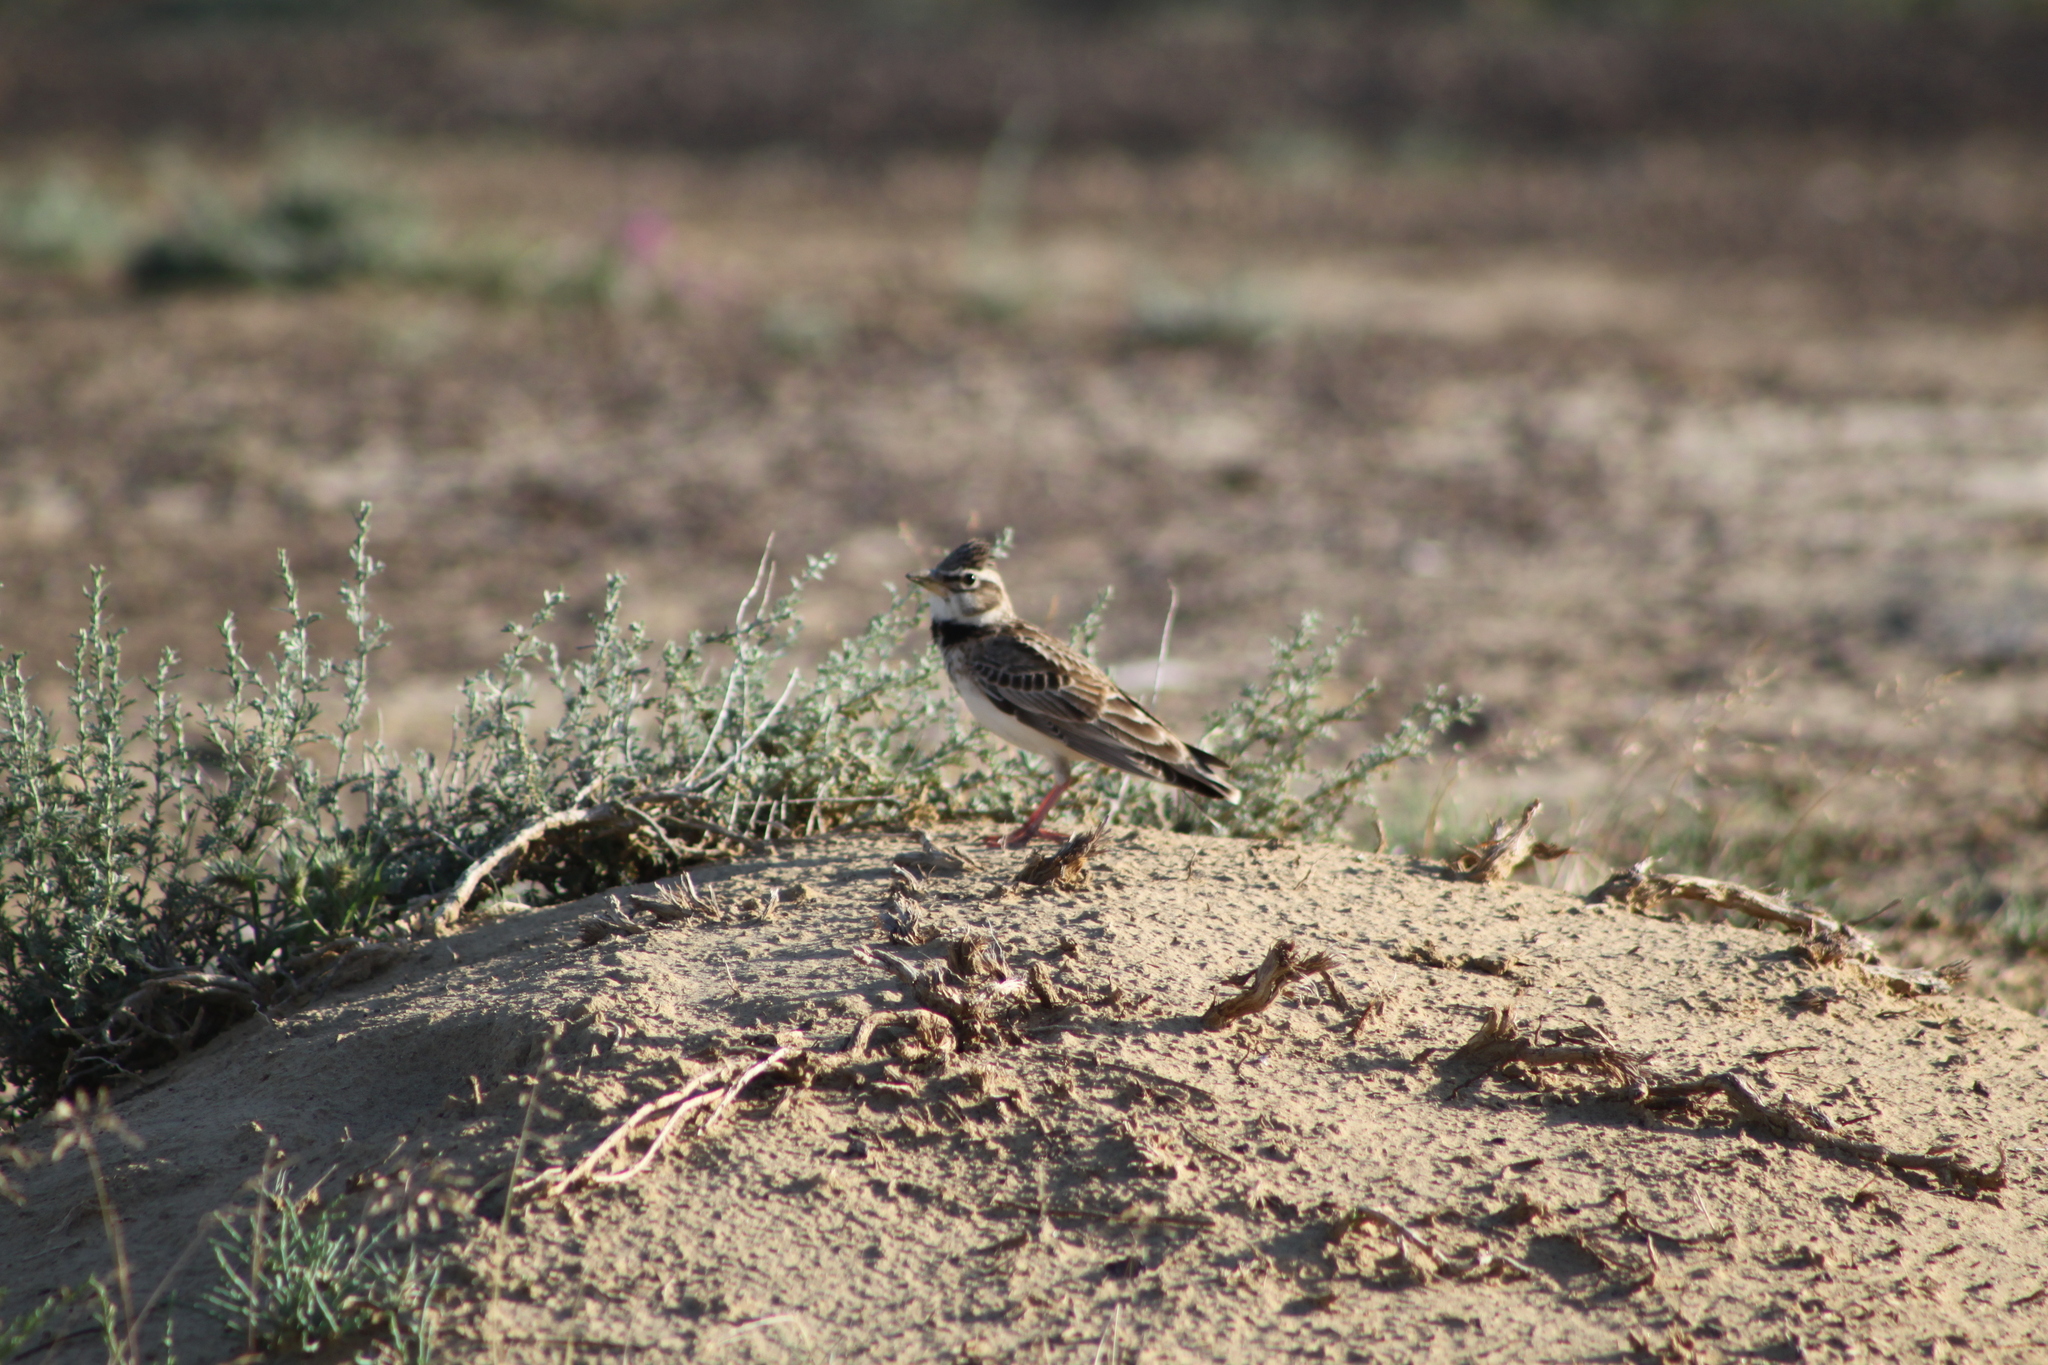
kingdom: Animalia
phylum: Chordata
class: Aves
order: Passeriformes
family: Alaudidae
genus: Melanocorypha
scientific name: Melanocorypha calandra
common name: Calandra lark
